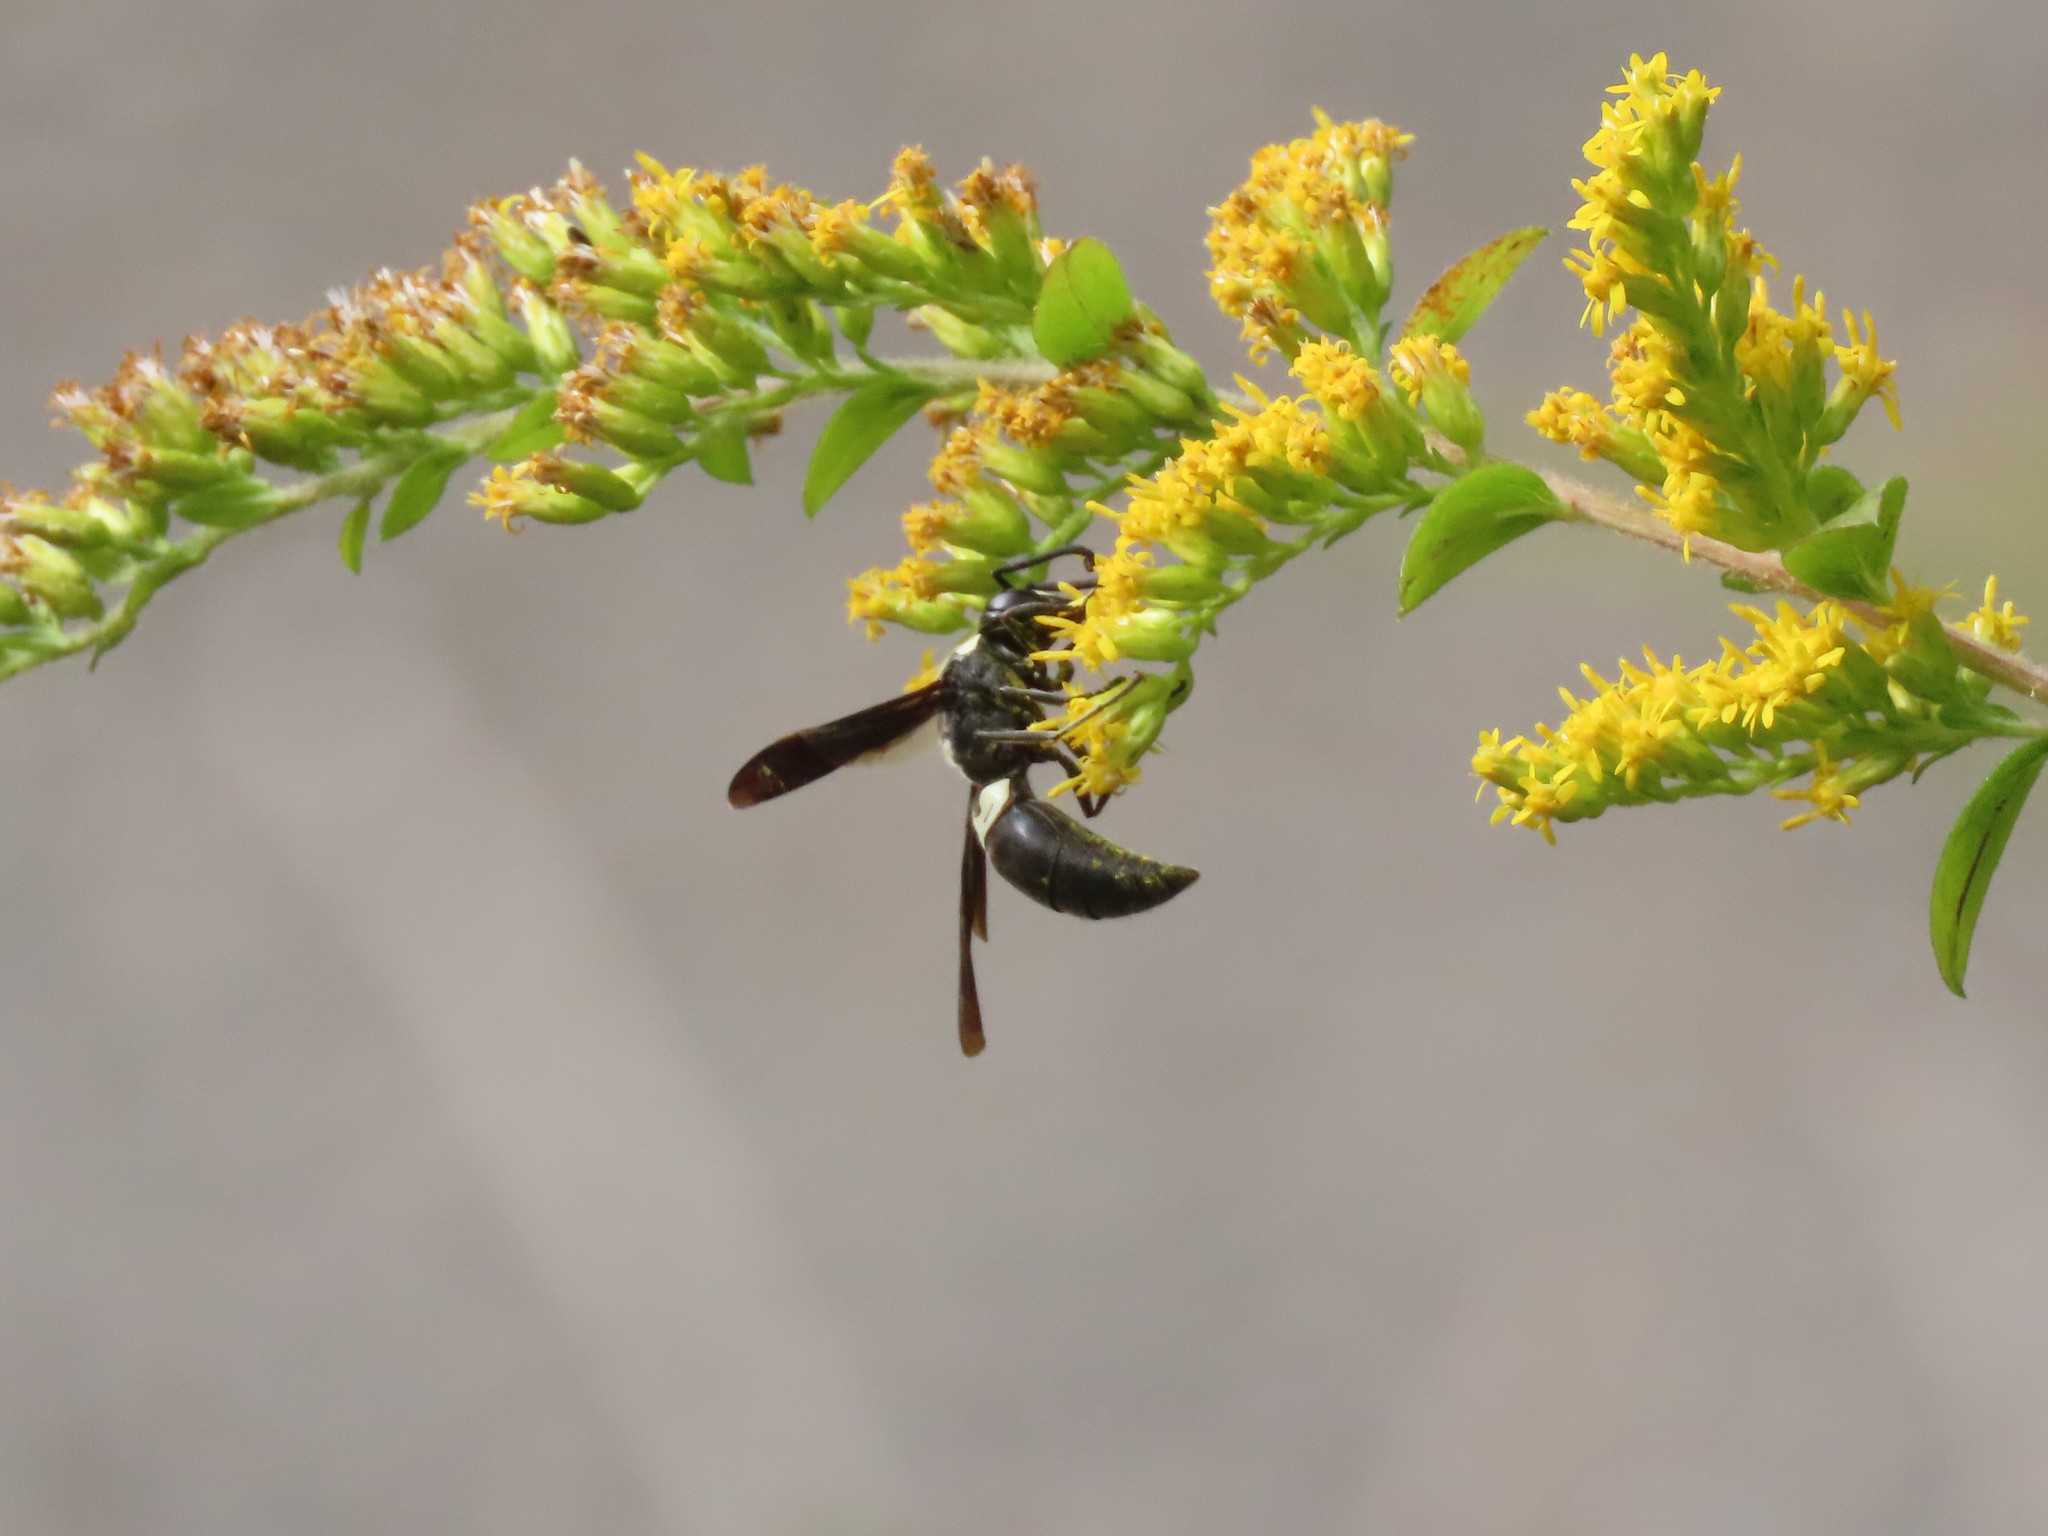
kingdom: Animalia
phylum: Arthropoda
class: Insecta
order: Hymenoptera
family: Eumenidae
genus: Monobia
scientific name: Monobia quadridens
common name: Four-toothed mason wasp
